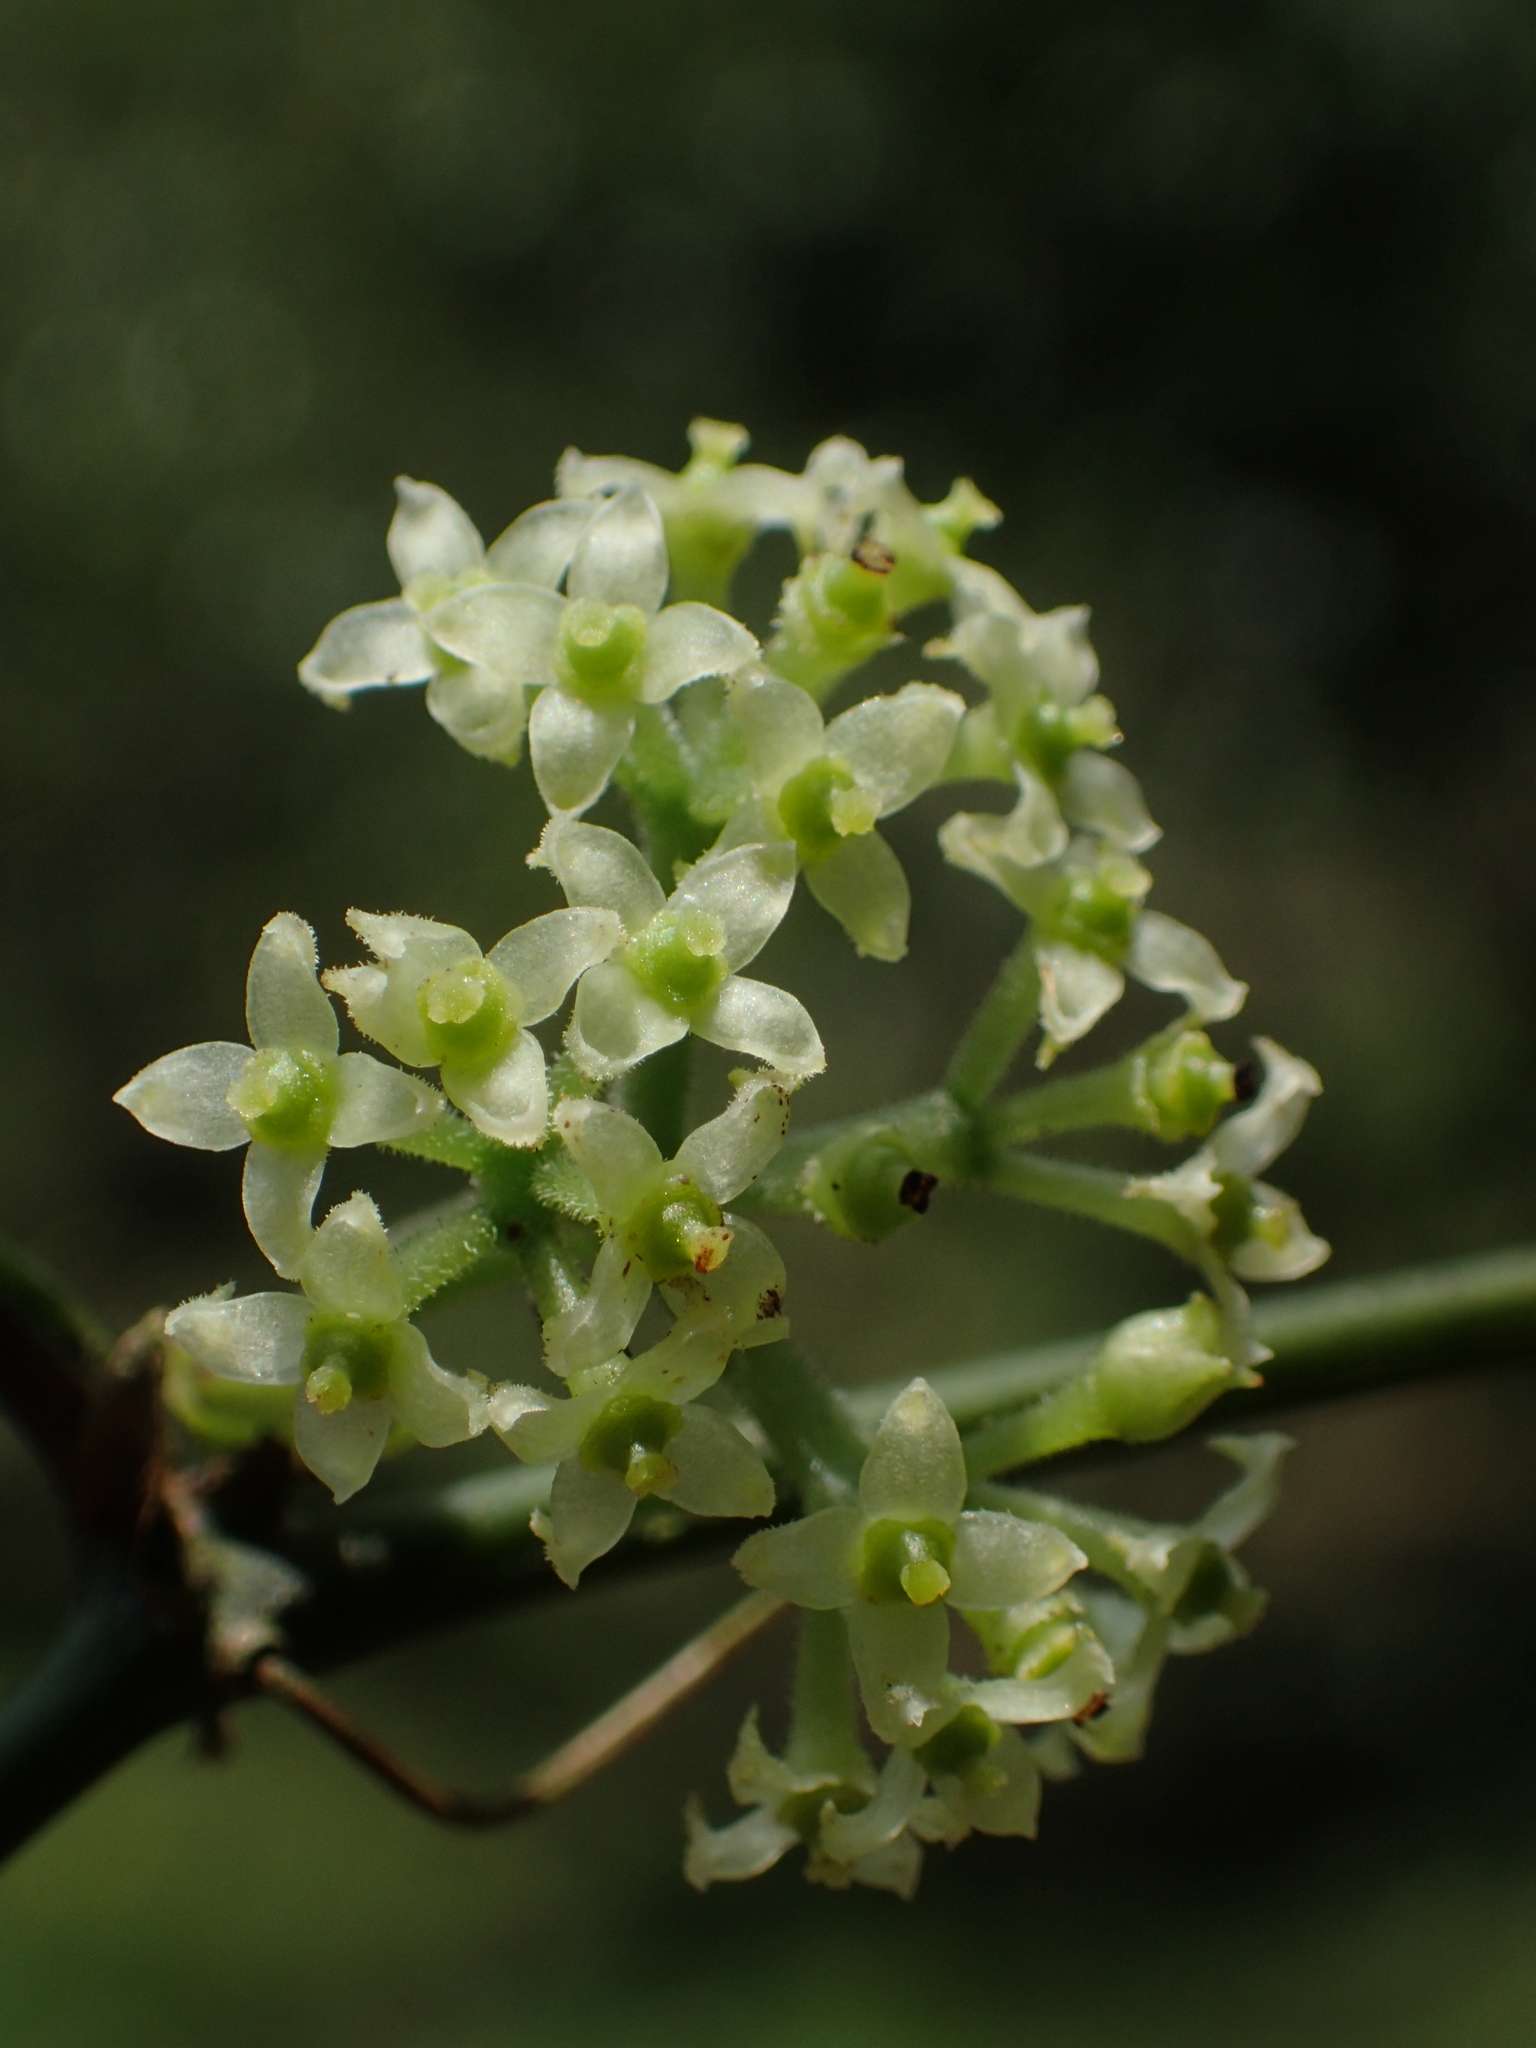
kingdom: Plantae
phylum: Tracheophyta
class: Magnoliopsida
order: Vitales
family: Vitaceae
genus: Tetrastigma
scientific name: Tetrastigma formosanum
